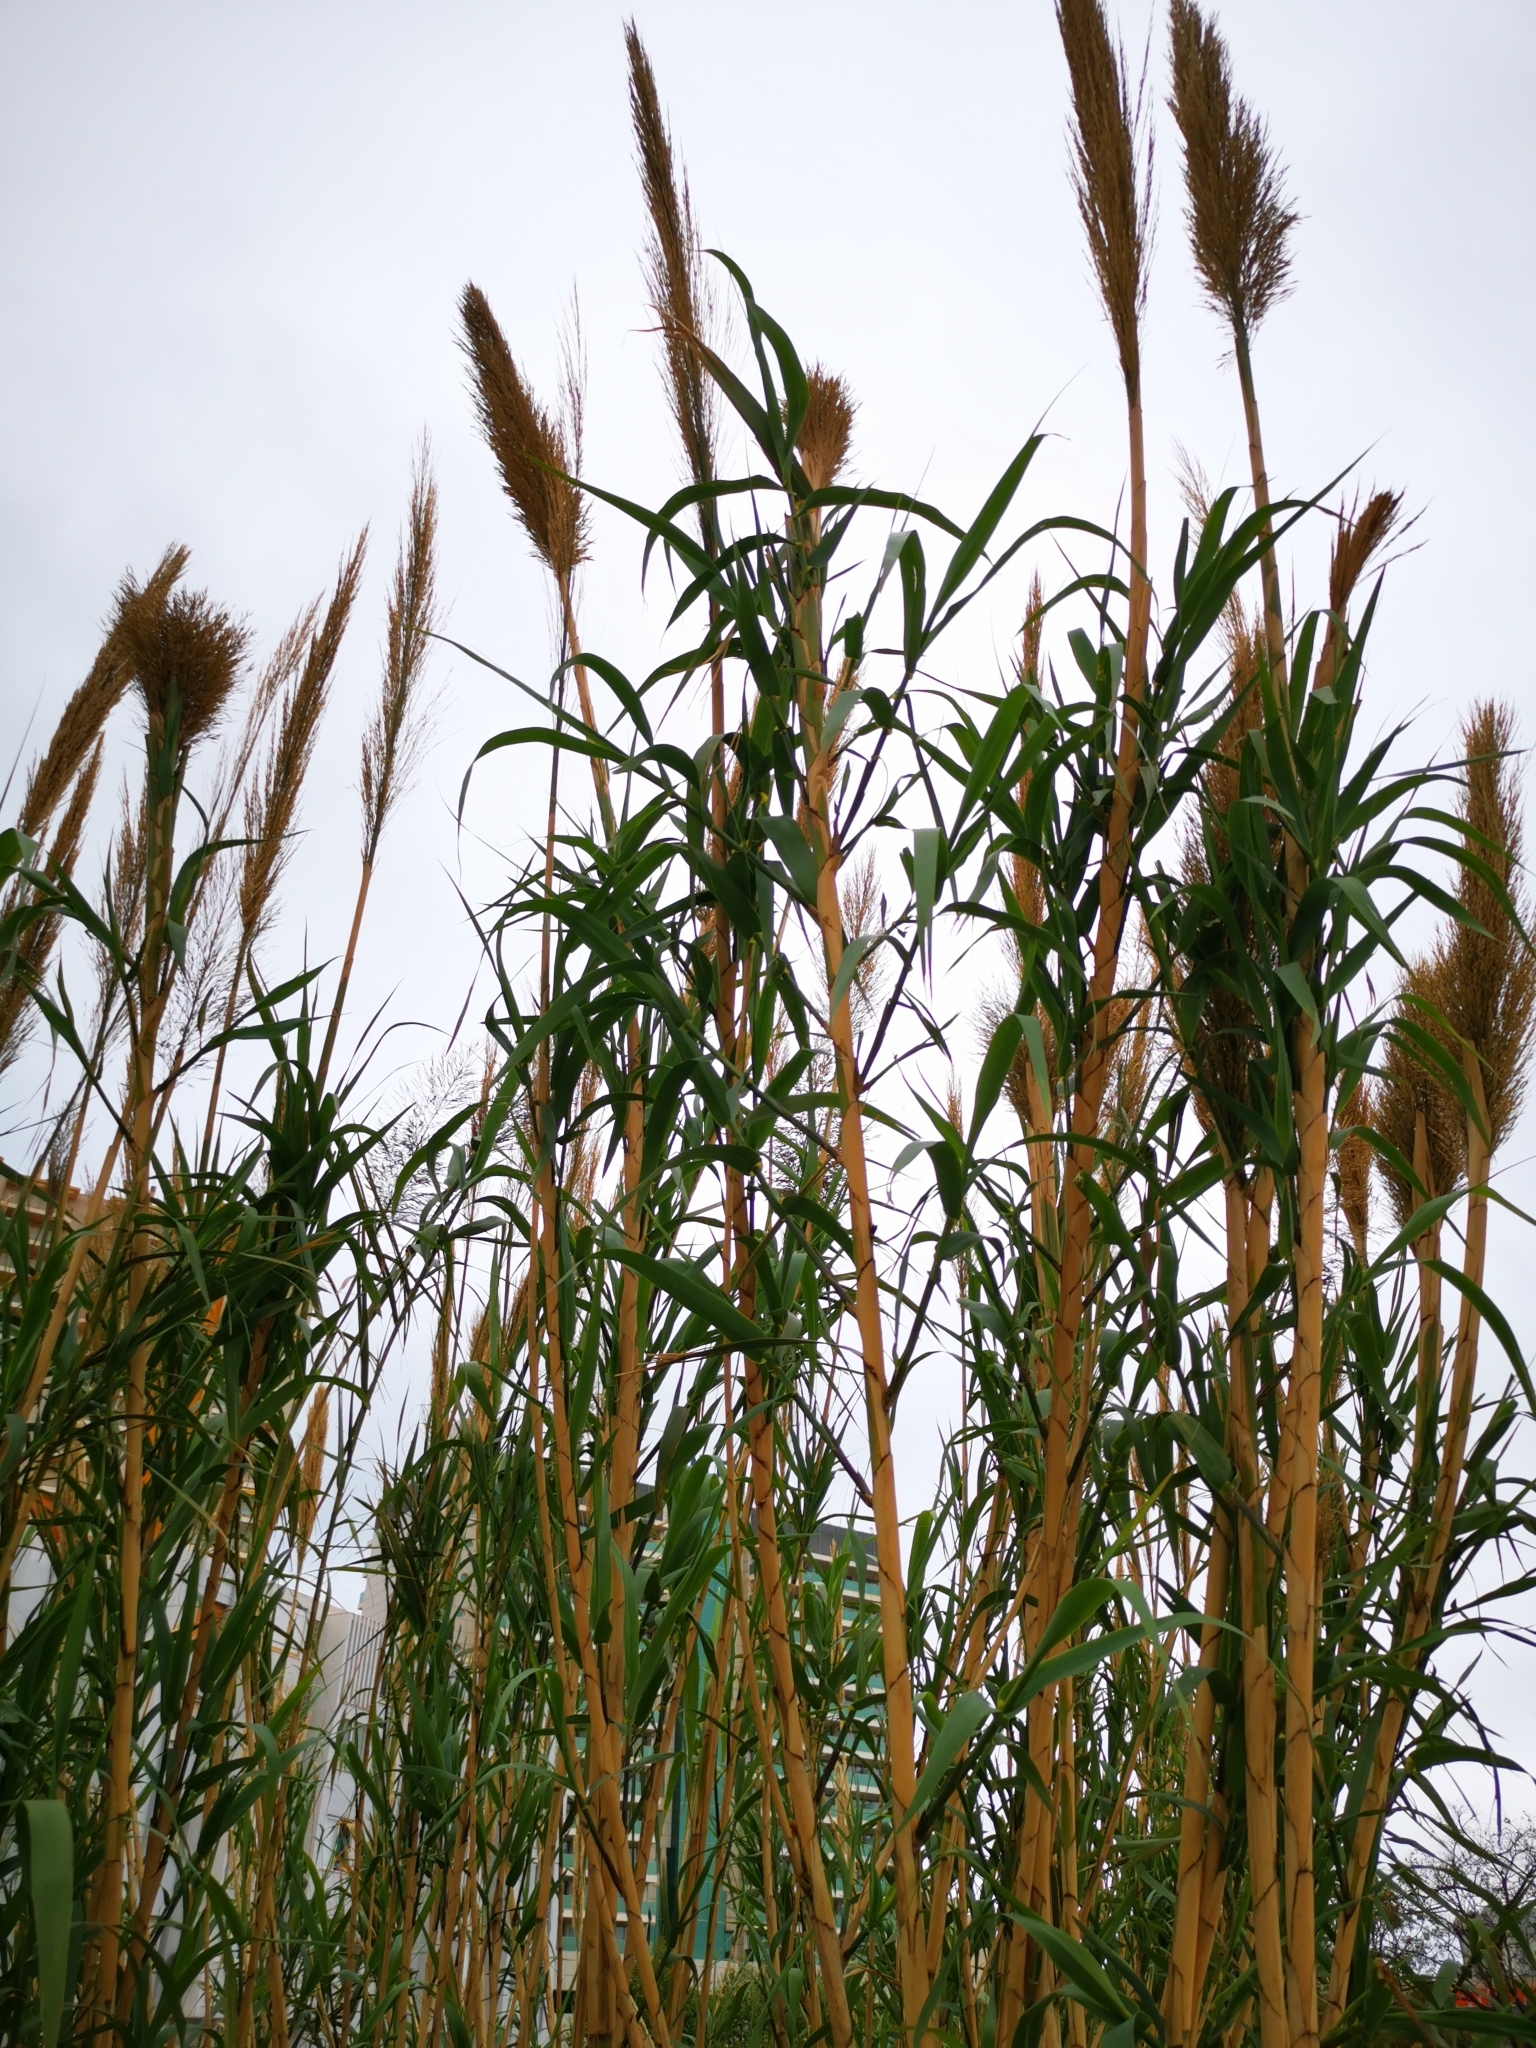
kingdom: Plantae
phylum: Tracheophyta
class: Liliopsida
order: Poales
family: Poaceae
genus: Arundo
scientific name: Arundo donax
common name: Giant reed
